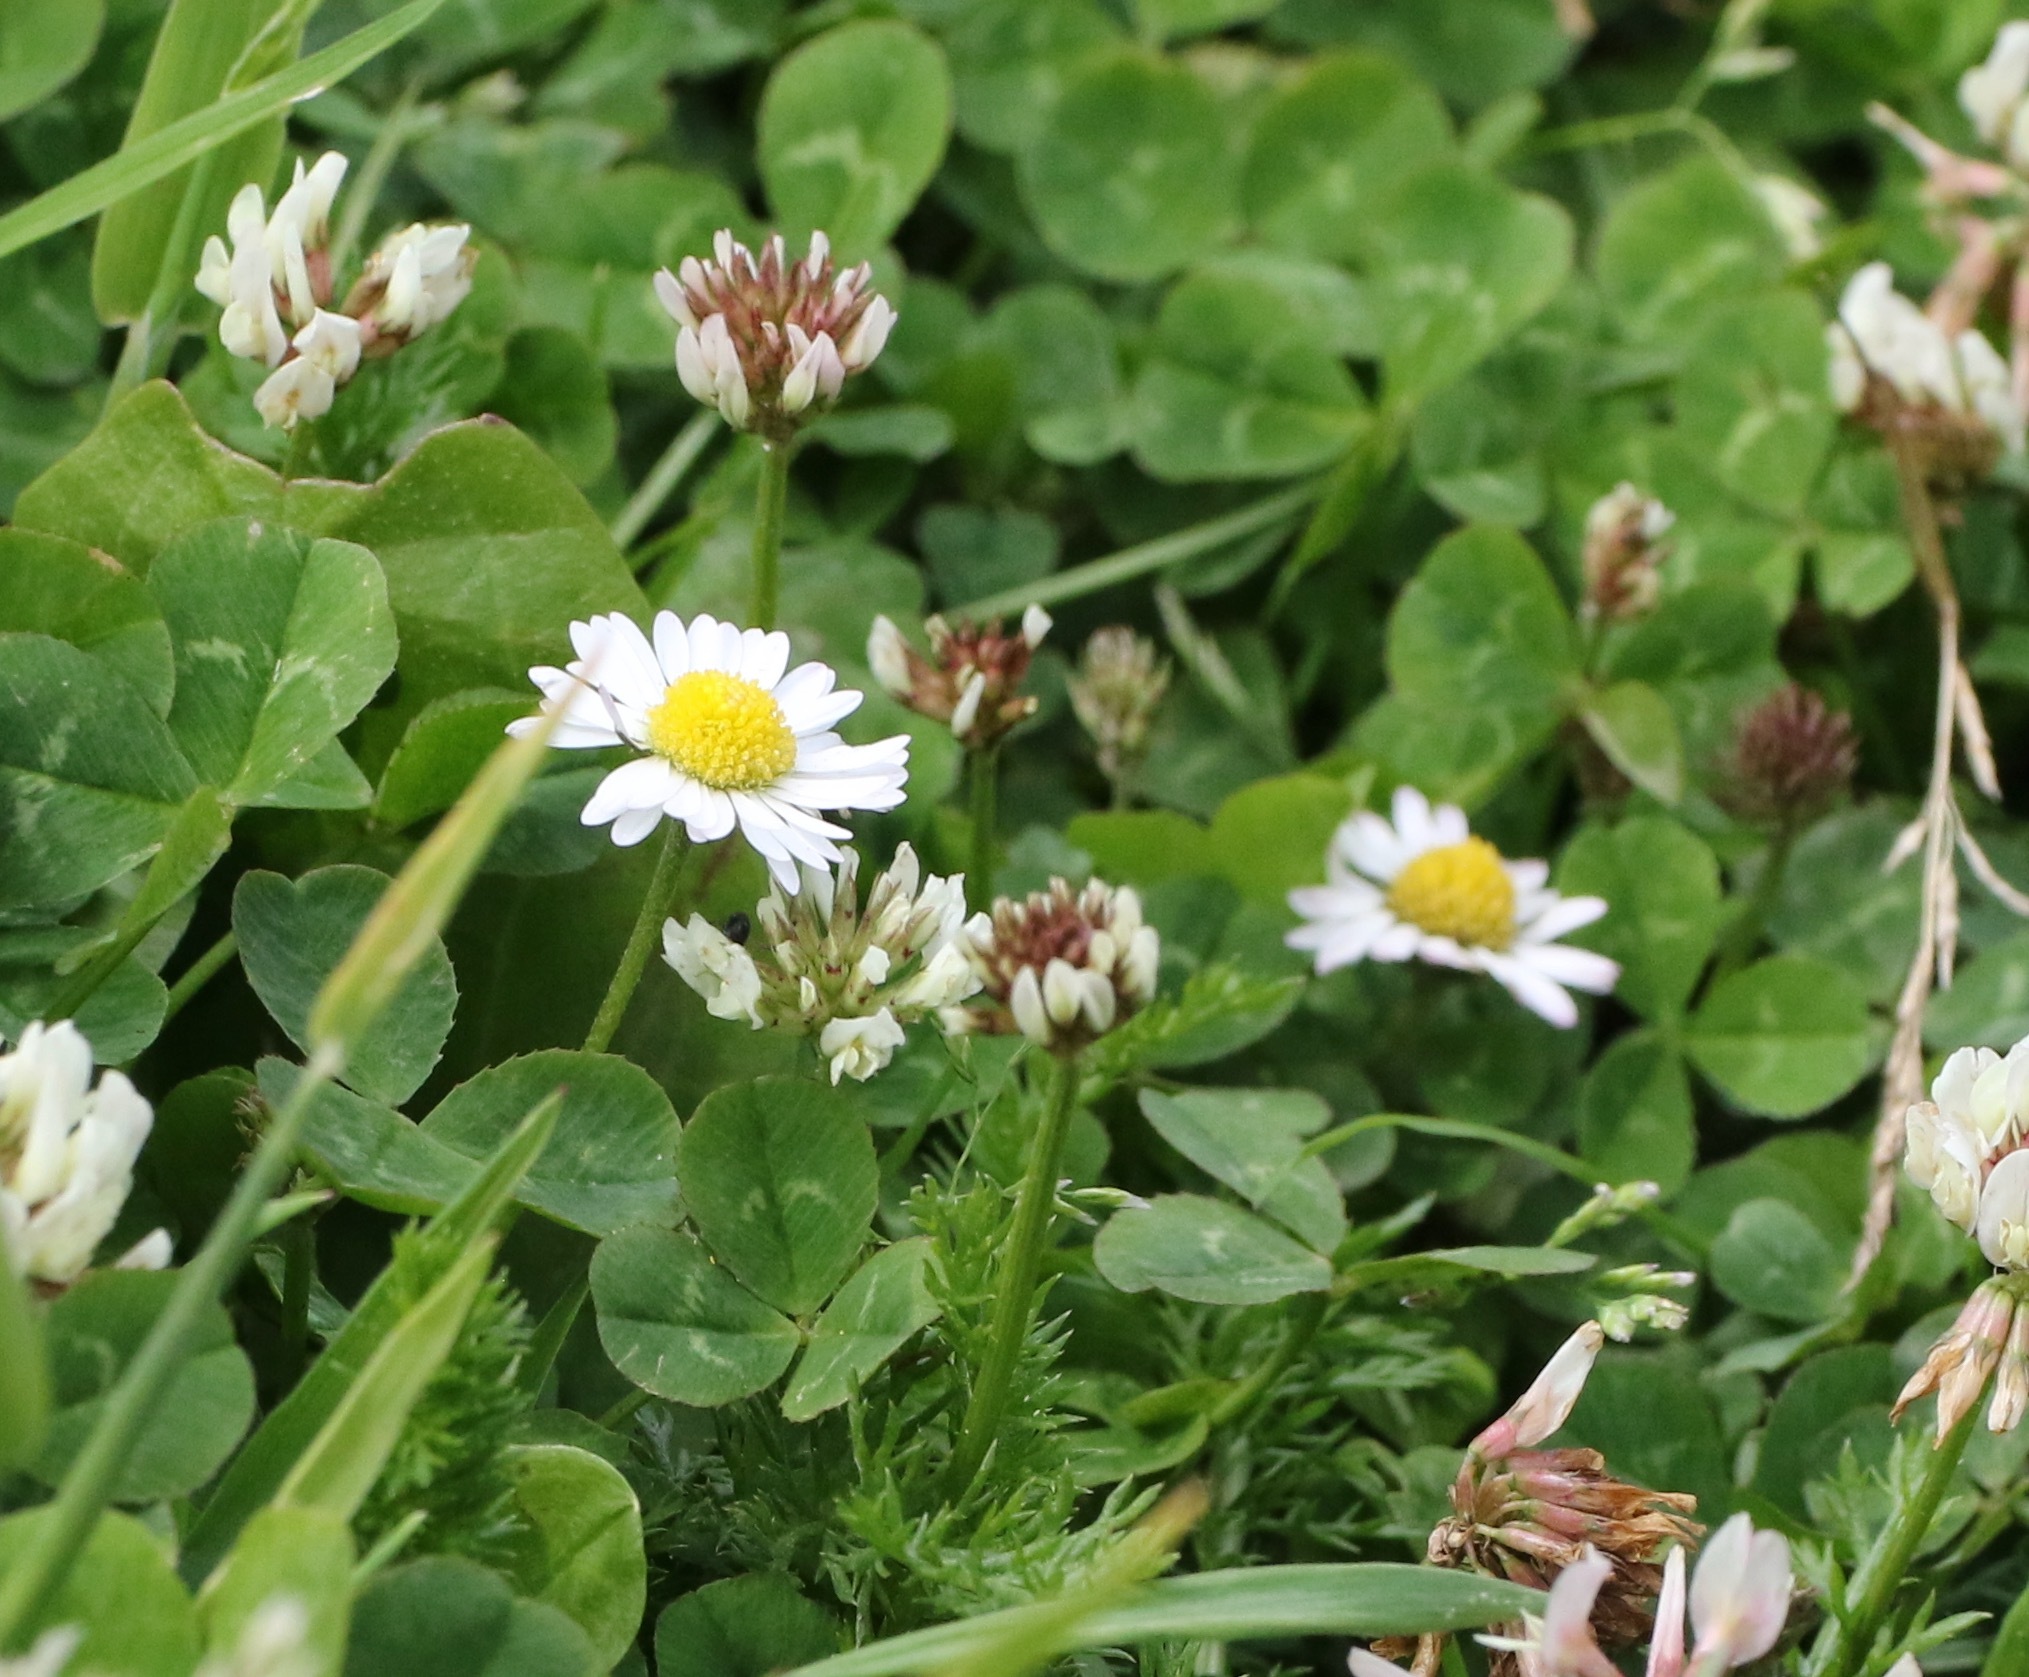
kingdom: Plantae
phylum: Tracheophyta
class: Magnoliopsida
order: Asterales
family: Asteraceae
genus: Bellis
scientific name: Bellis perennis
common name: Lawndaisy
